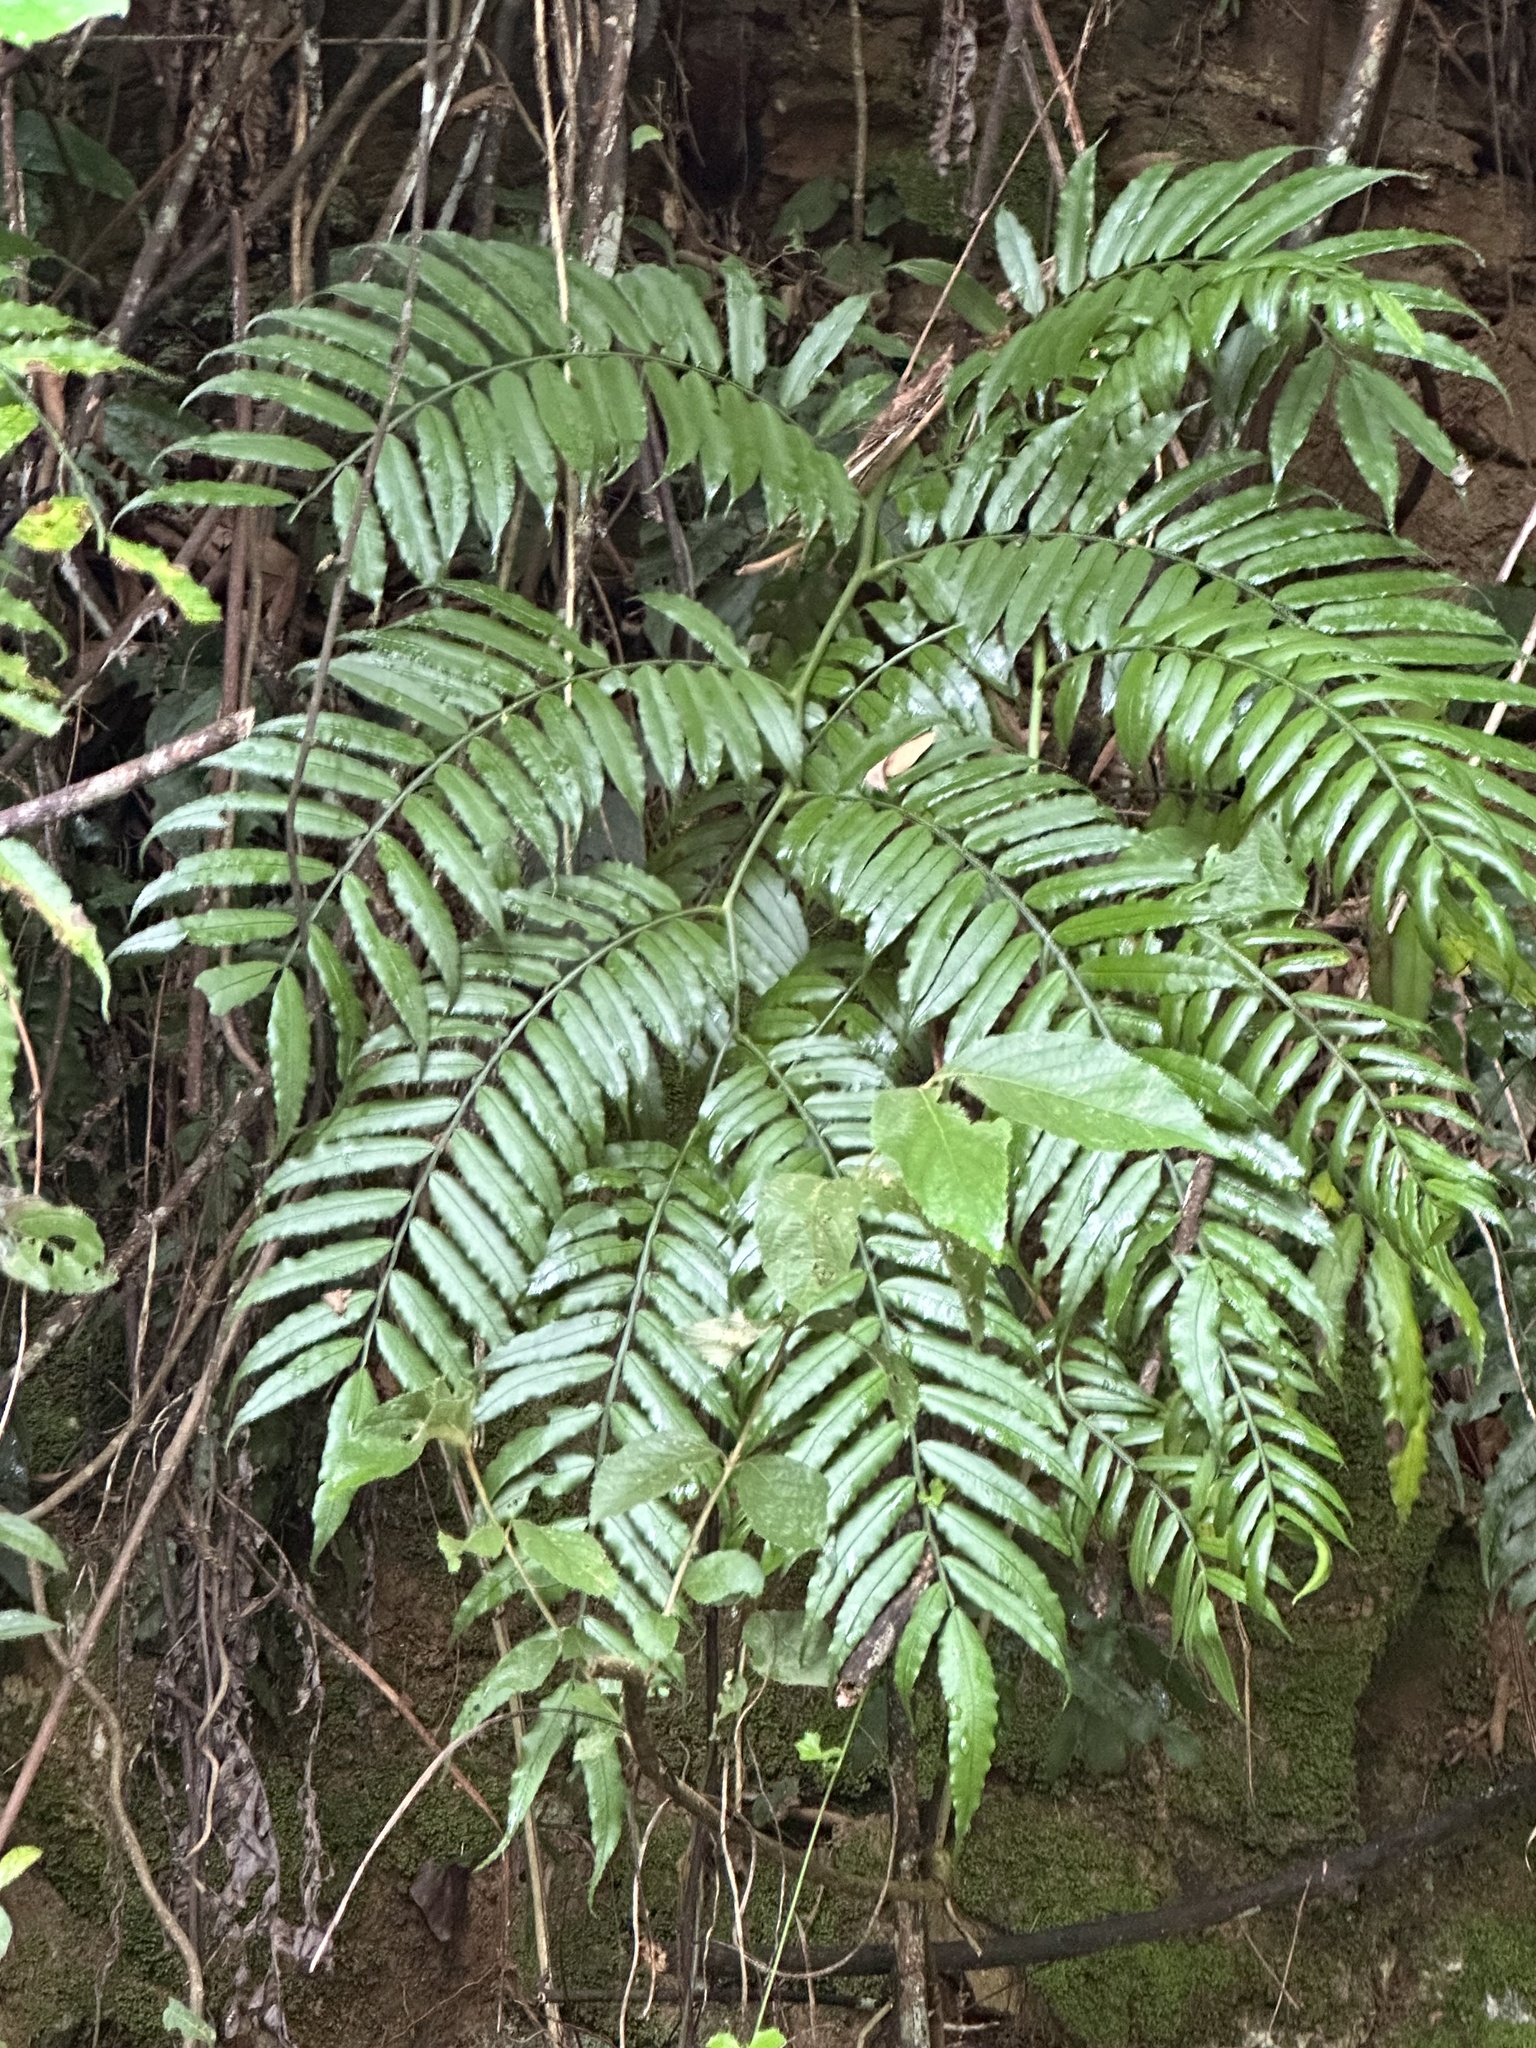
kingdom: Plantae
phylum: Tracheophyta
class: Polypodiopsida
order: Marattiales
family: Marattiaceae
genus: Angiopteris
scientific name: Angiopteris lygodiifolia
